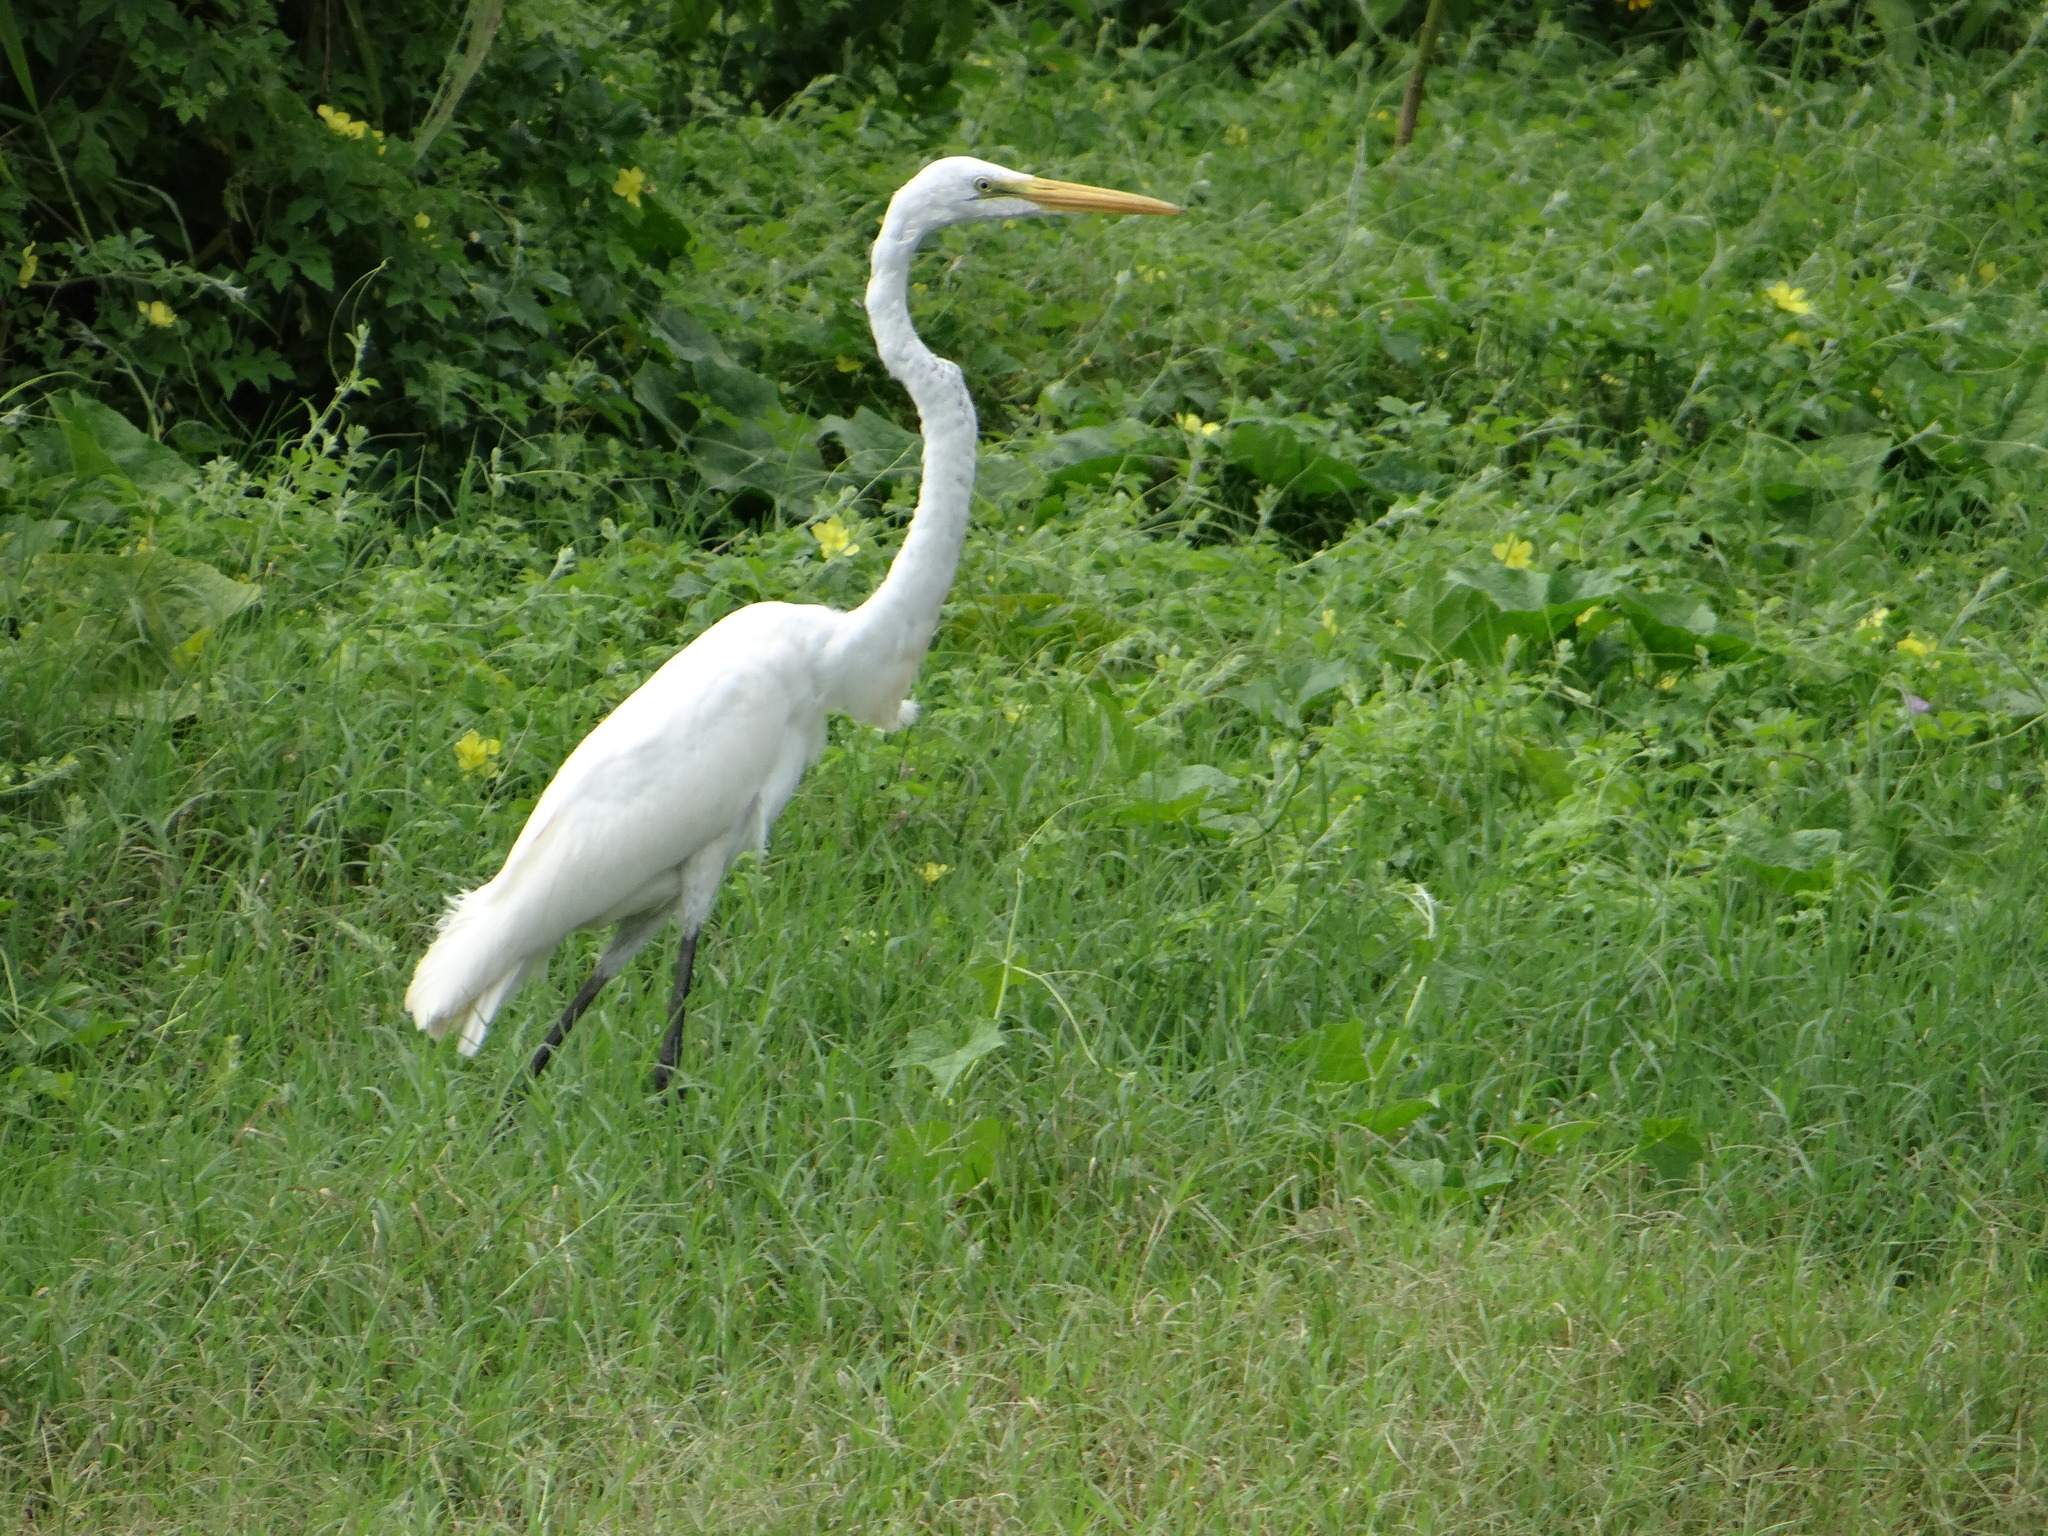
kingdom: Animalia
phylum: Chordata
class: Aves
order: Pelecaniformes
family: Ardeidae
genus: Ardea
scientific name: Ardea alba
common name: Great egret
